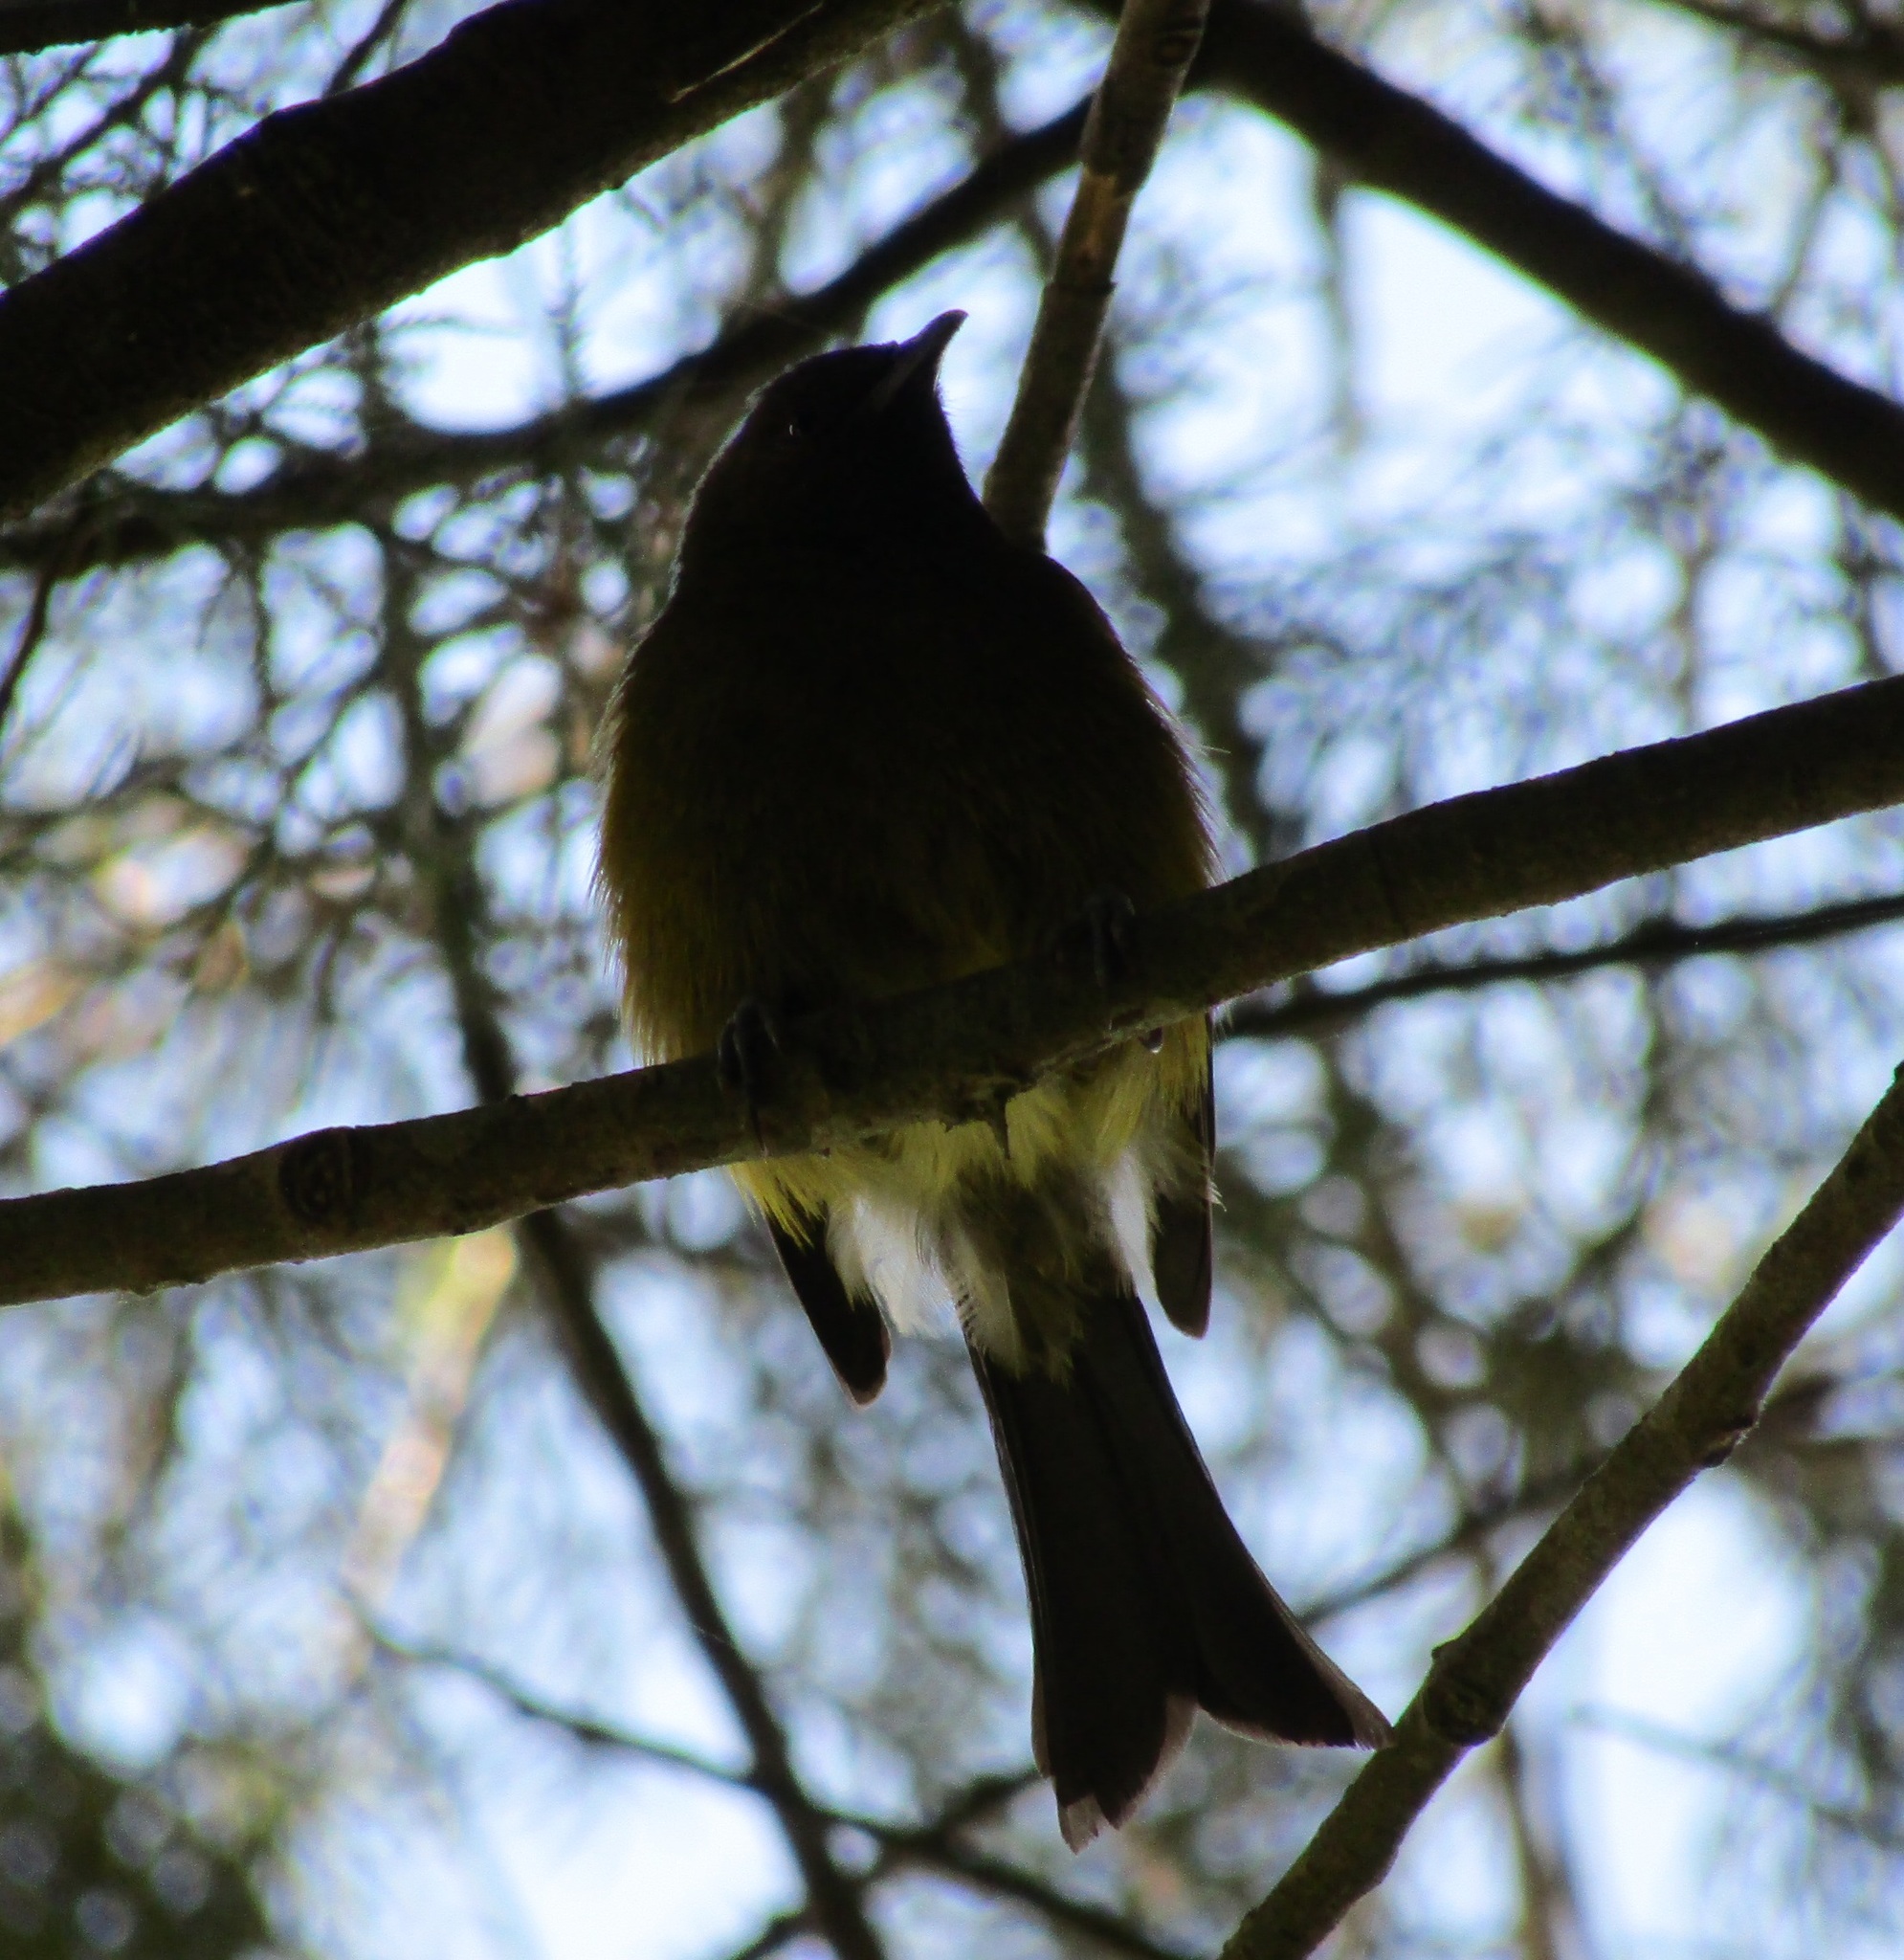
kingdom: Animalia
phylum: Chordata
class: Aves
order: Passeriformes
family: Meliphagidae
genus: Anthornis
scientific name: Anthornis melanura
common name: New zealand bellbird
